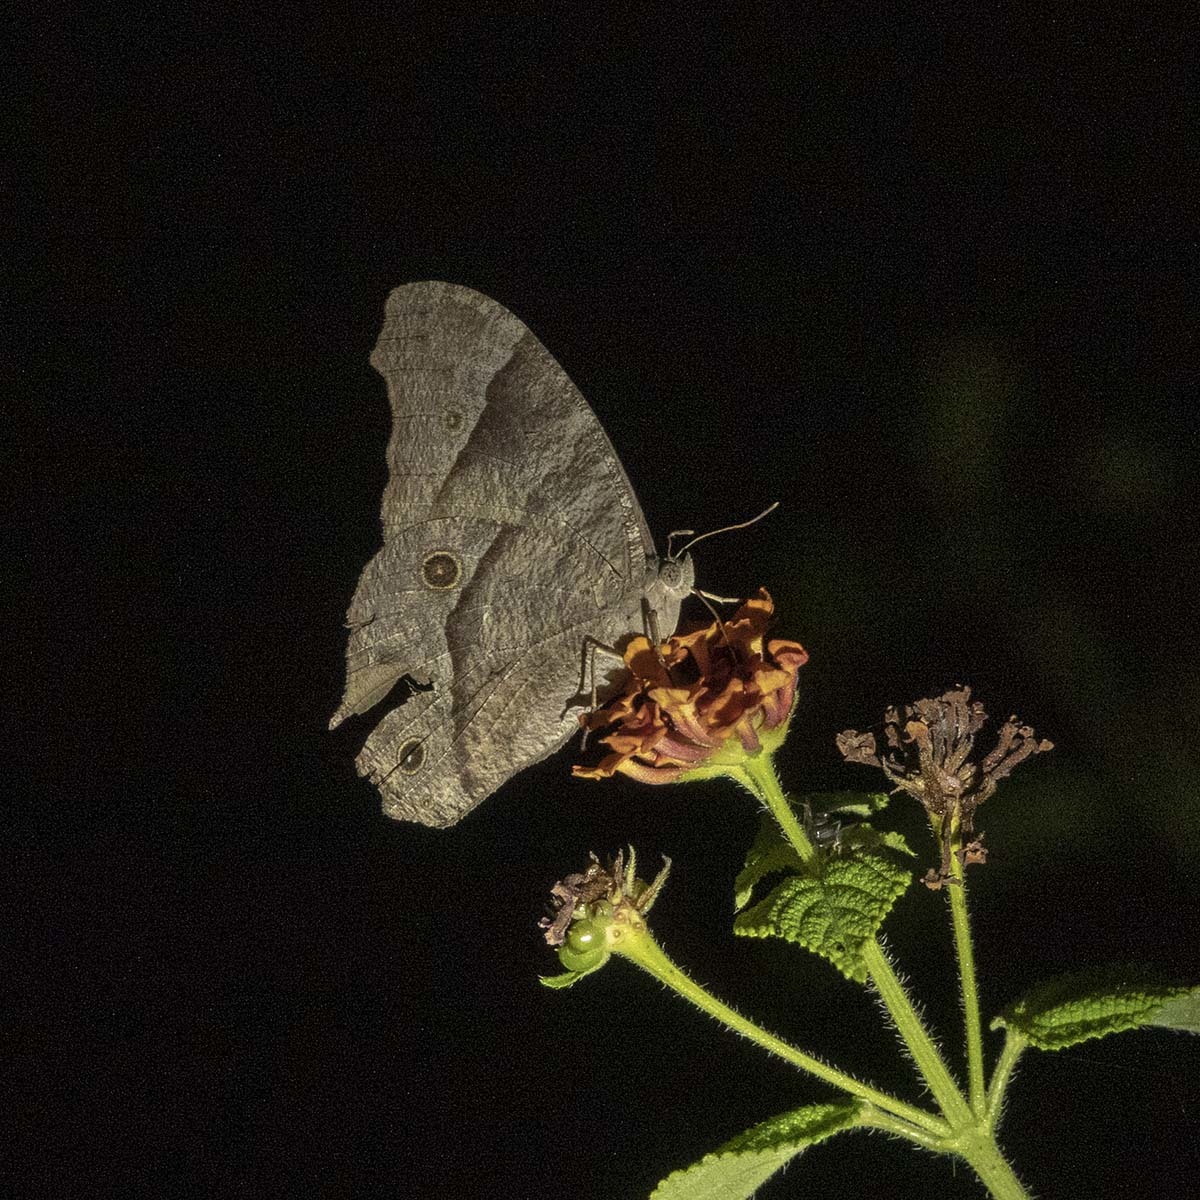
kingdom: Animalia
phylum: Arthropoda
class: Insecta
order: Lepidoptera
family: Nymphalidae
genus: Melanitis
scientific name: Melanitis leda
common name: Twilight brown
